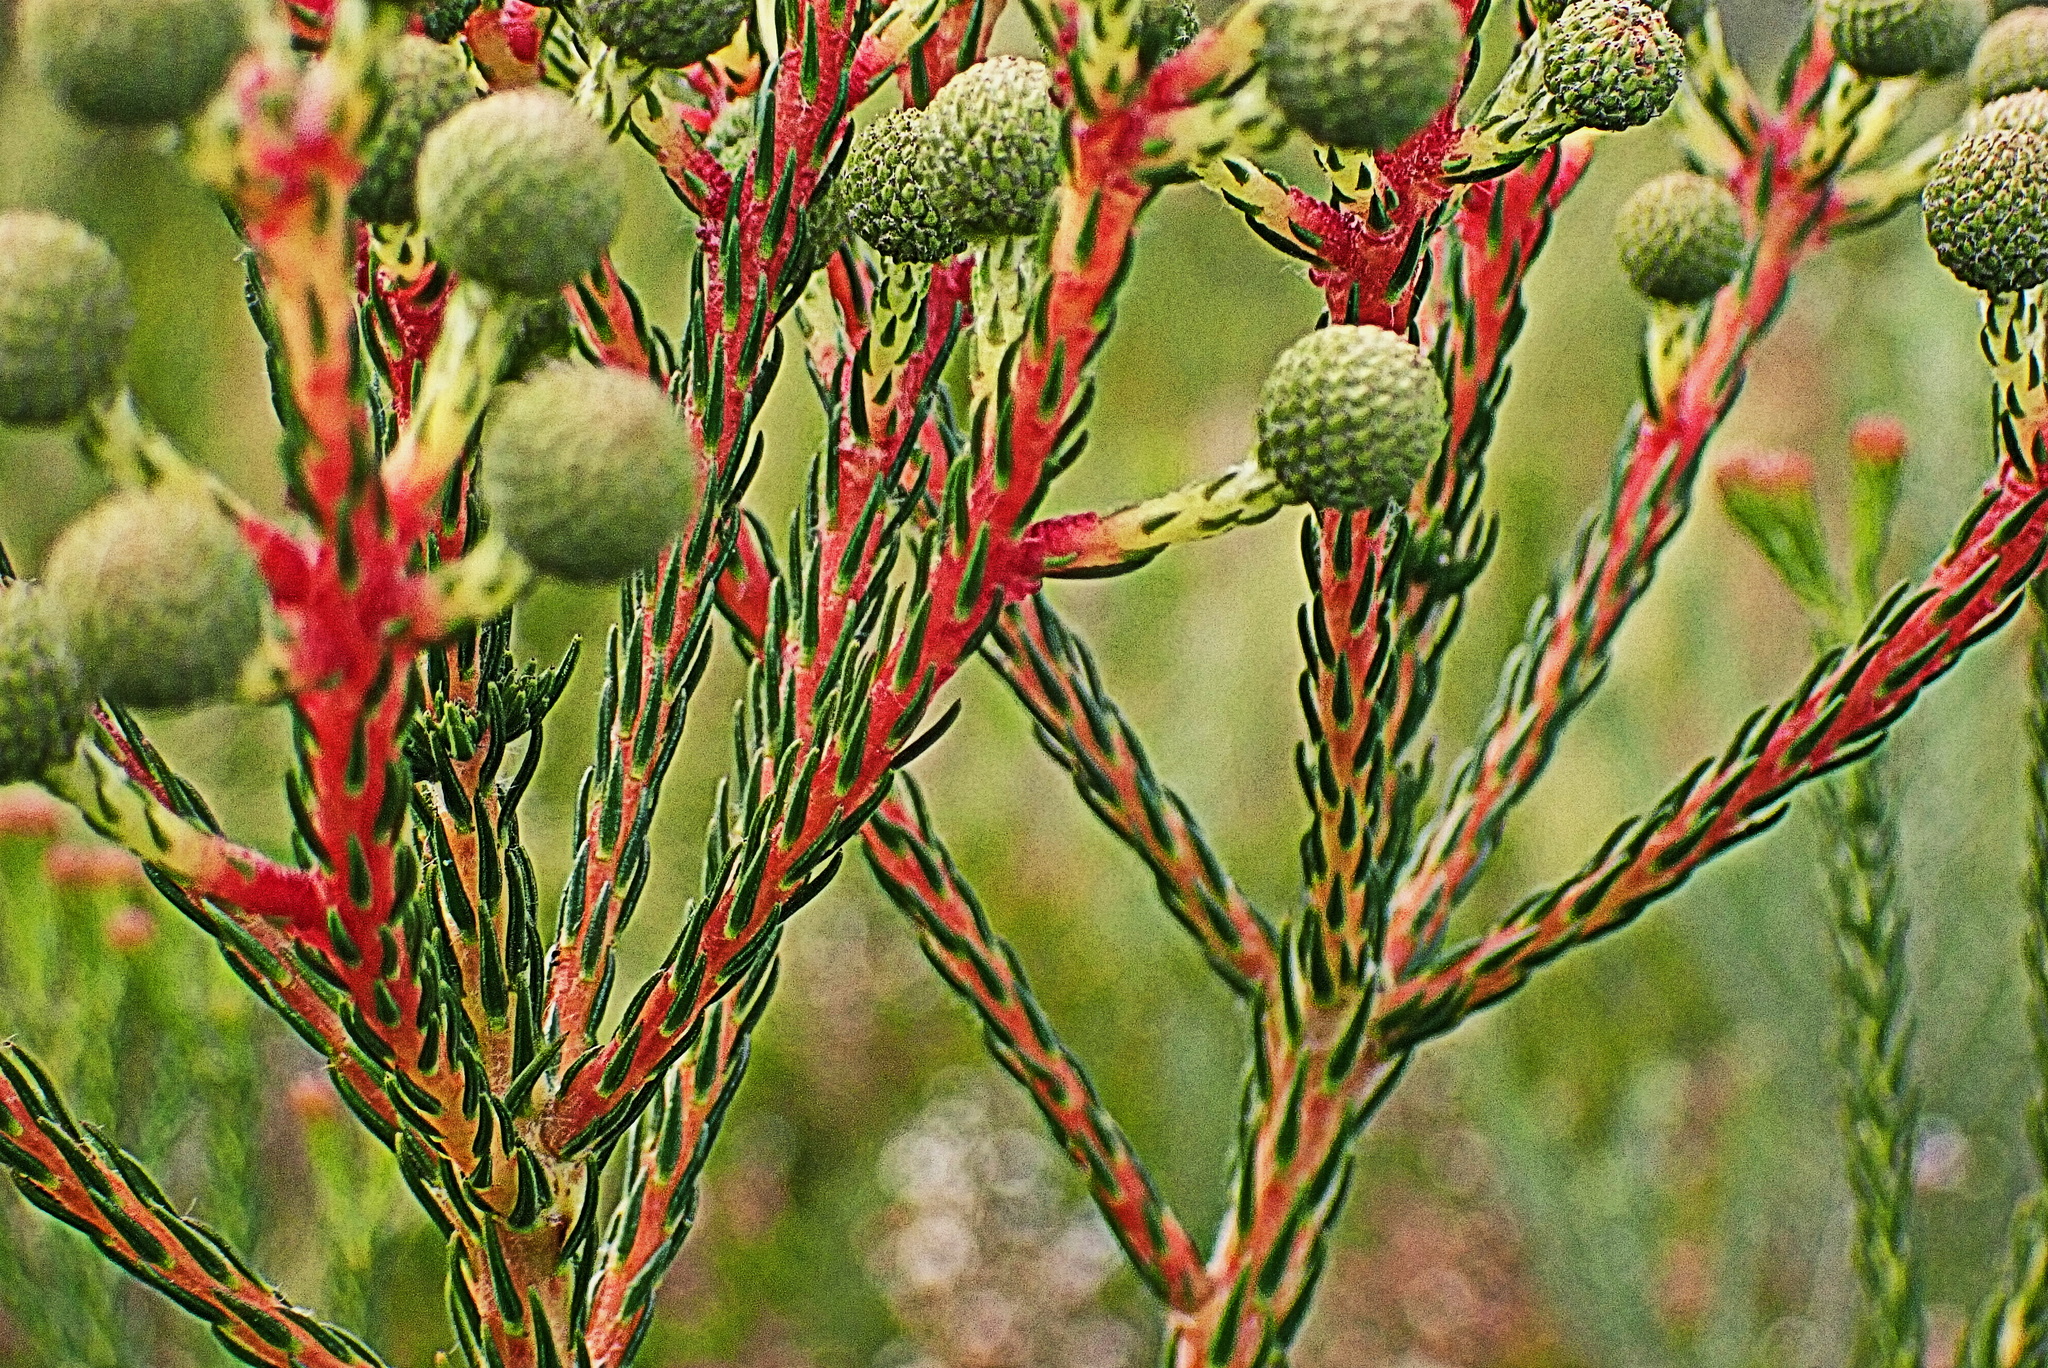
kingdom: Plantae
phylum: Tracheophyta
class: Magnoliopsida
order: Bruniales
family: Bruniaceae
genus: Berzelia
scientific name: Berzelia intermedia
